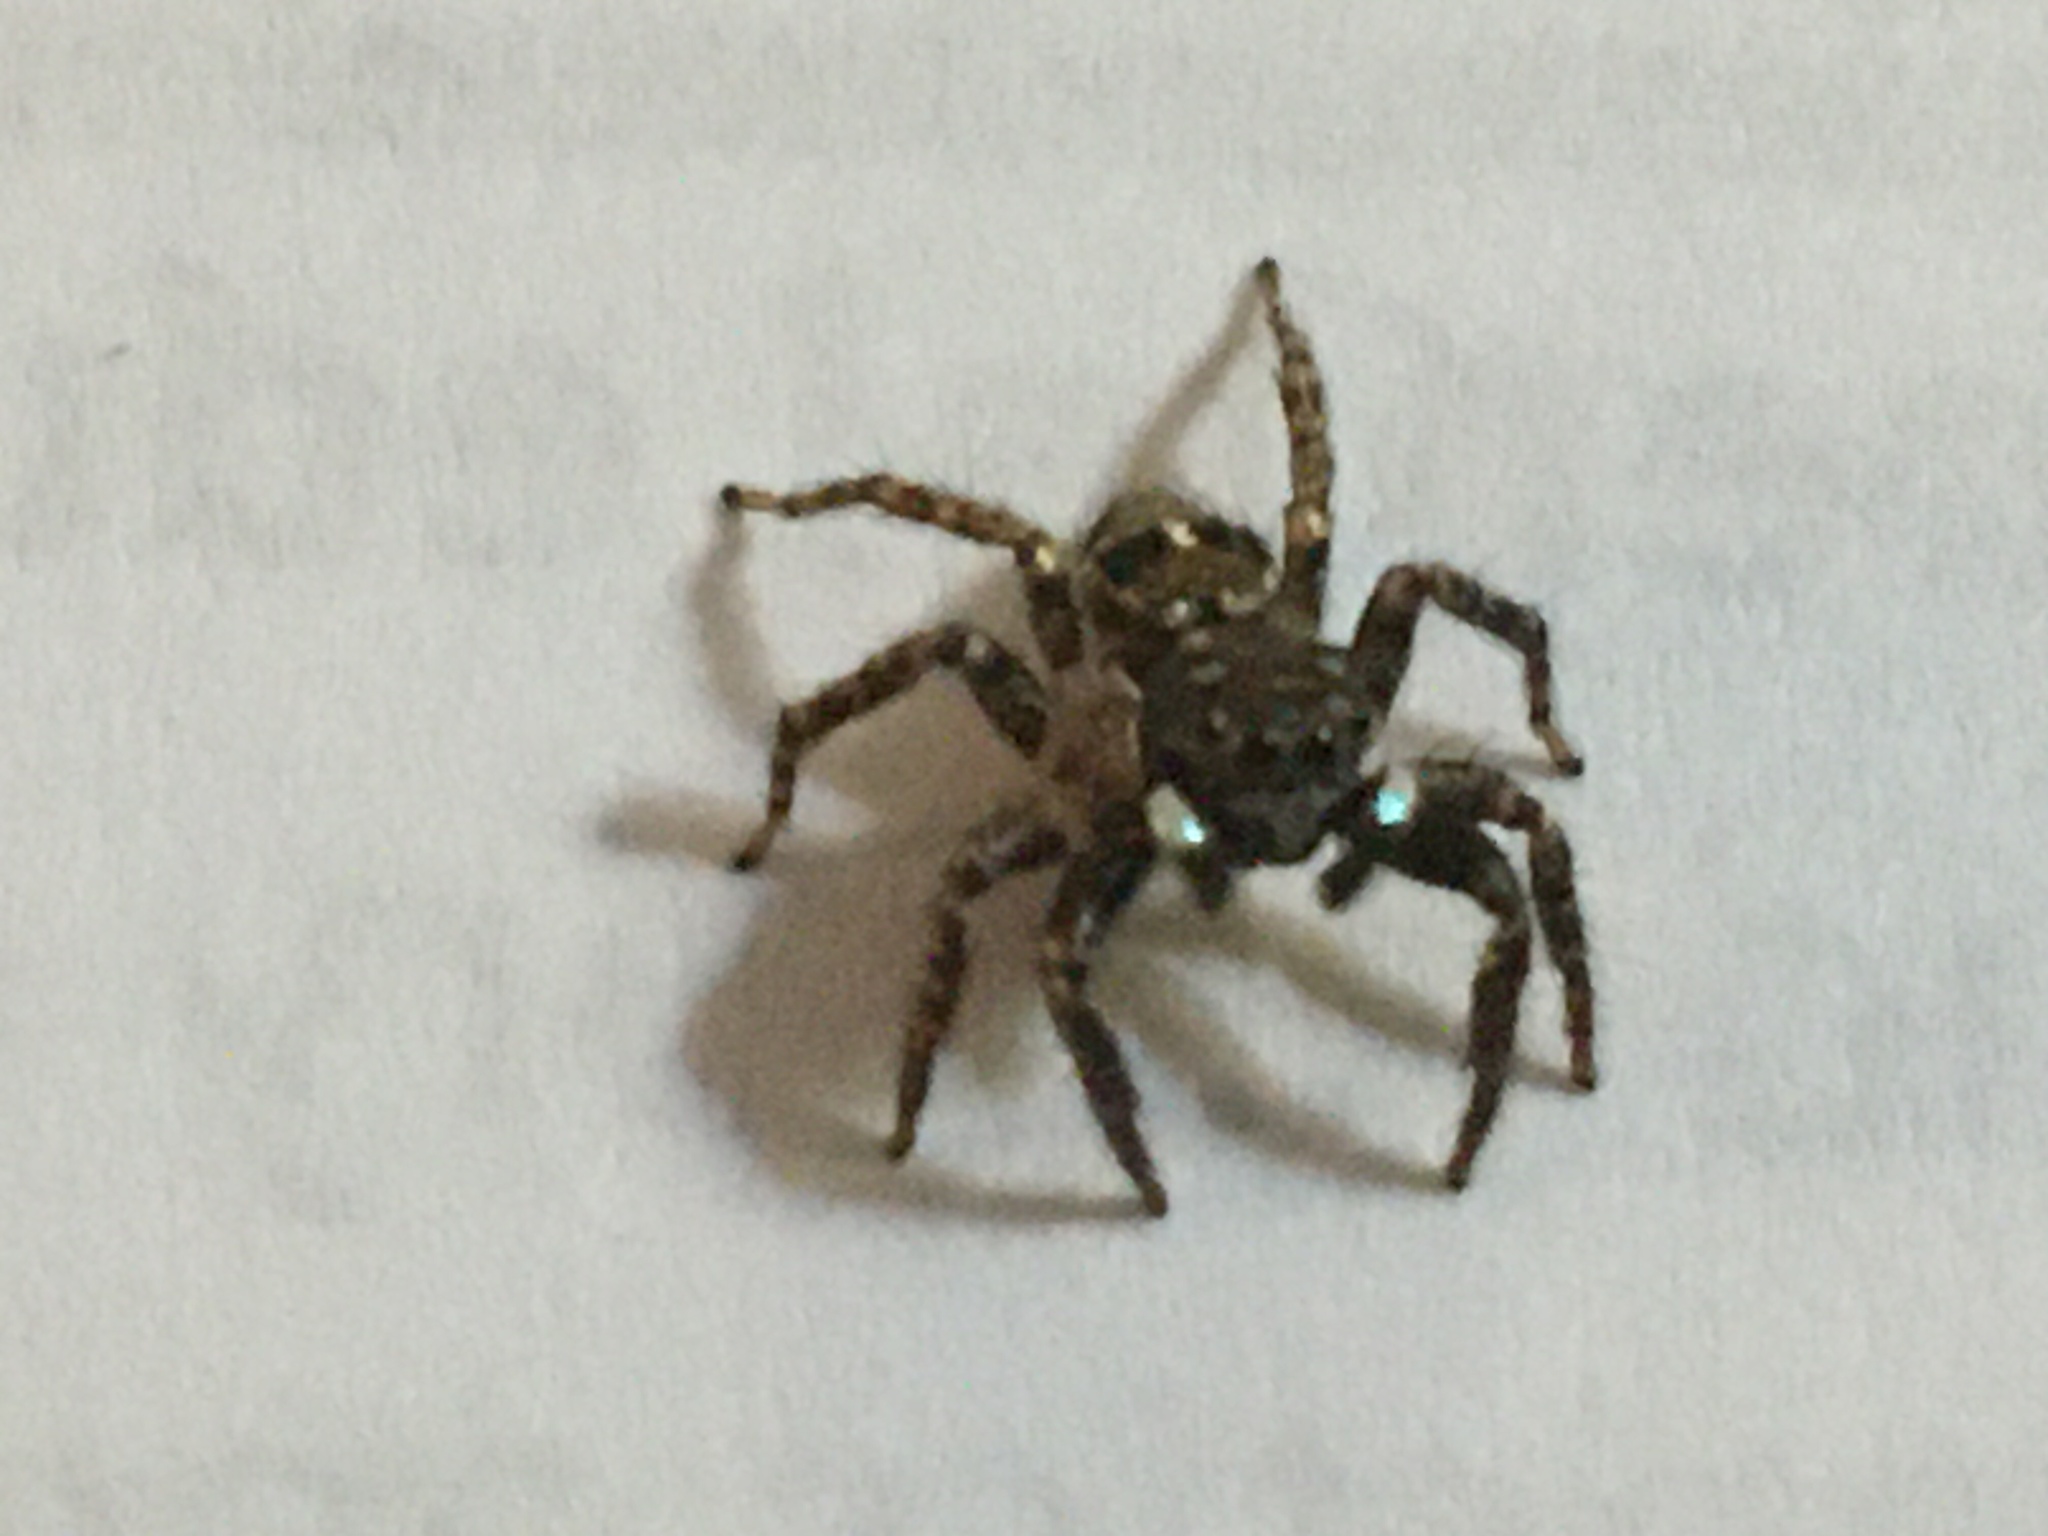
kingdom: Animalia
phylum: Arthropoda
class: Arachnida
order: Araneae
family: Salticidae
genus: Anasaitis
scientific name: Anasaitis canosa
